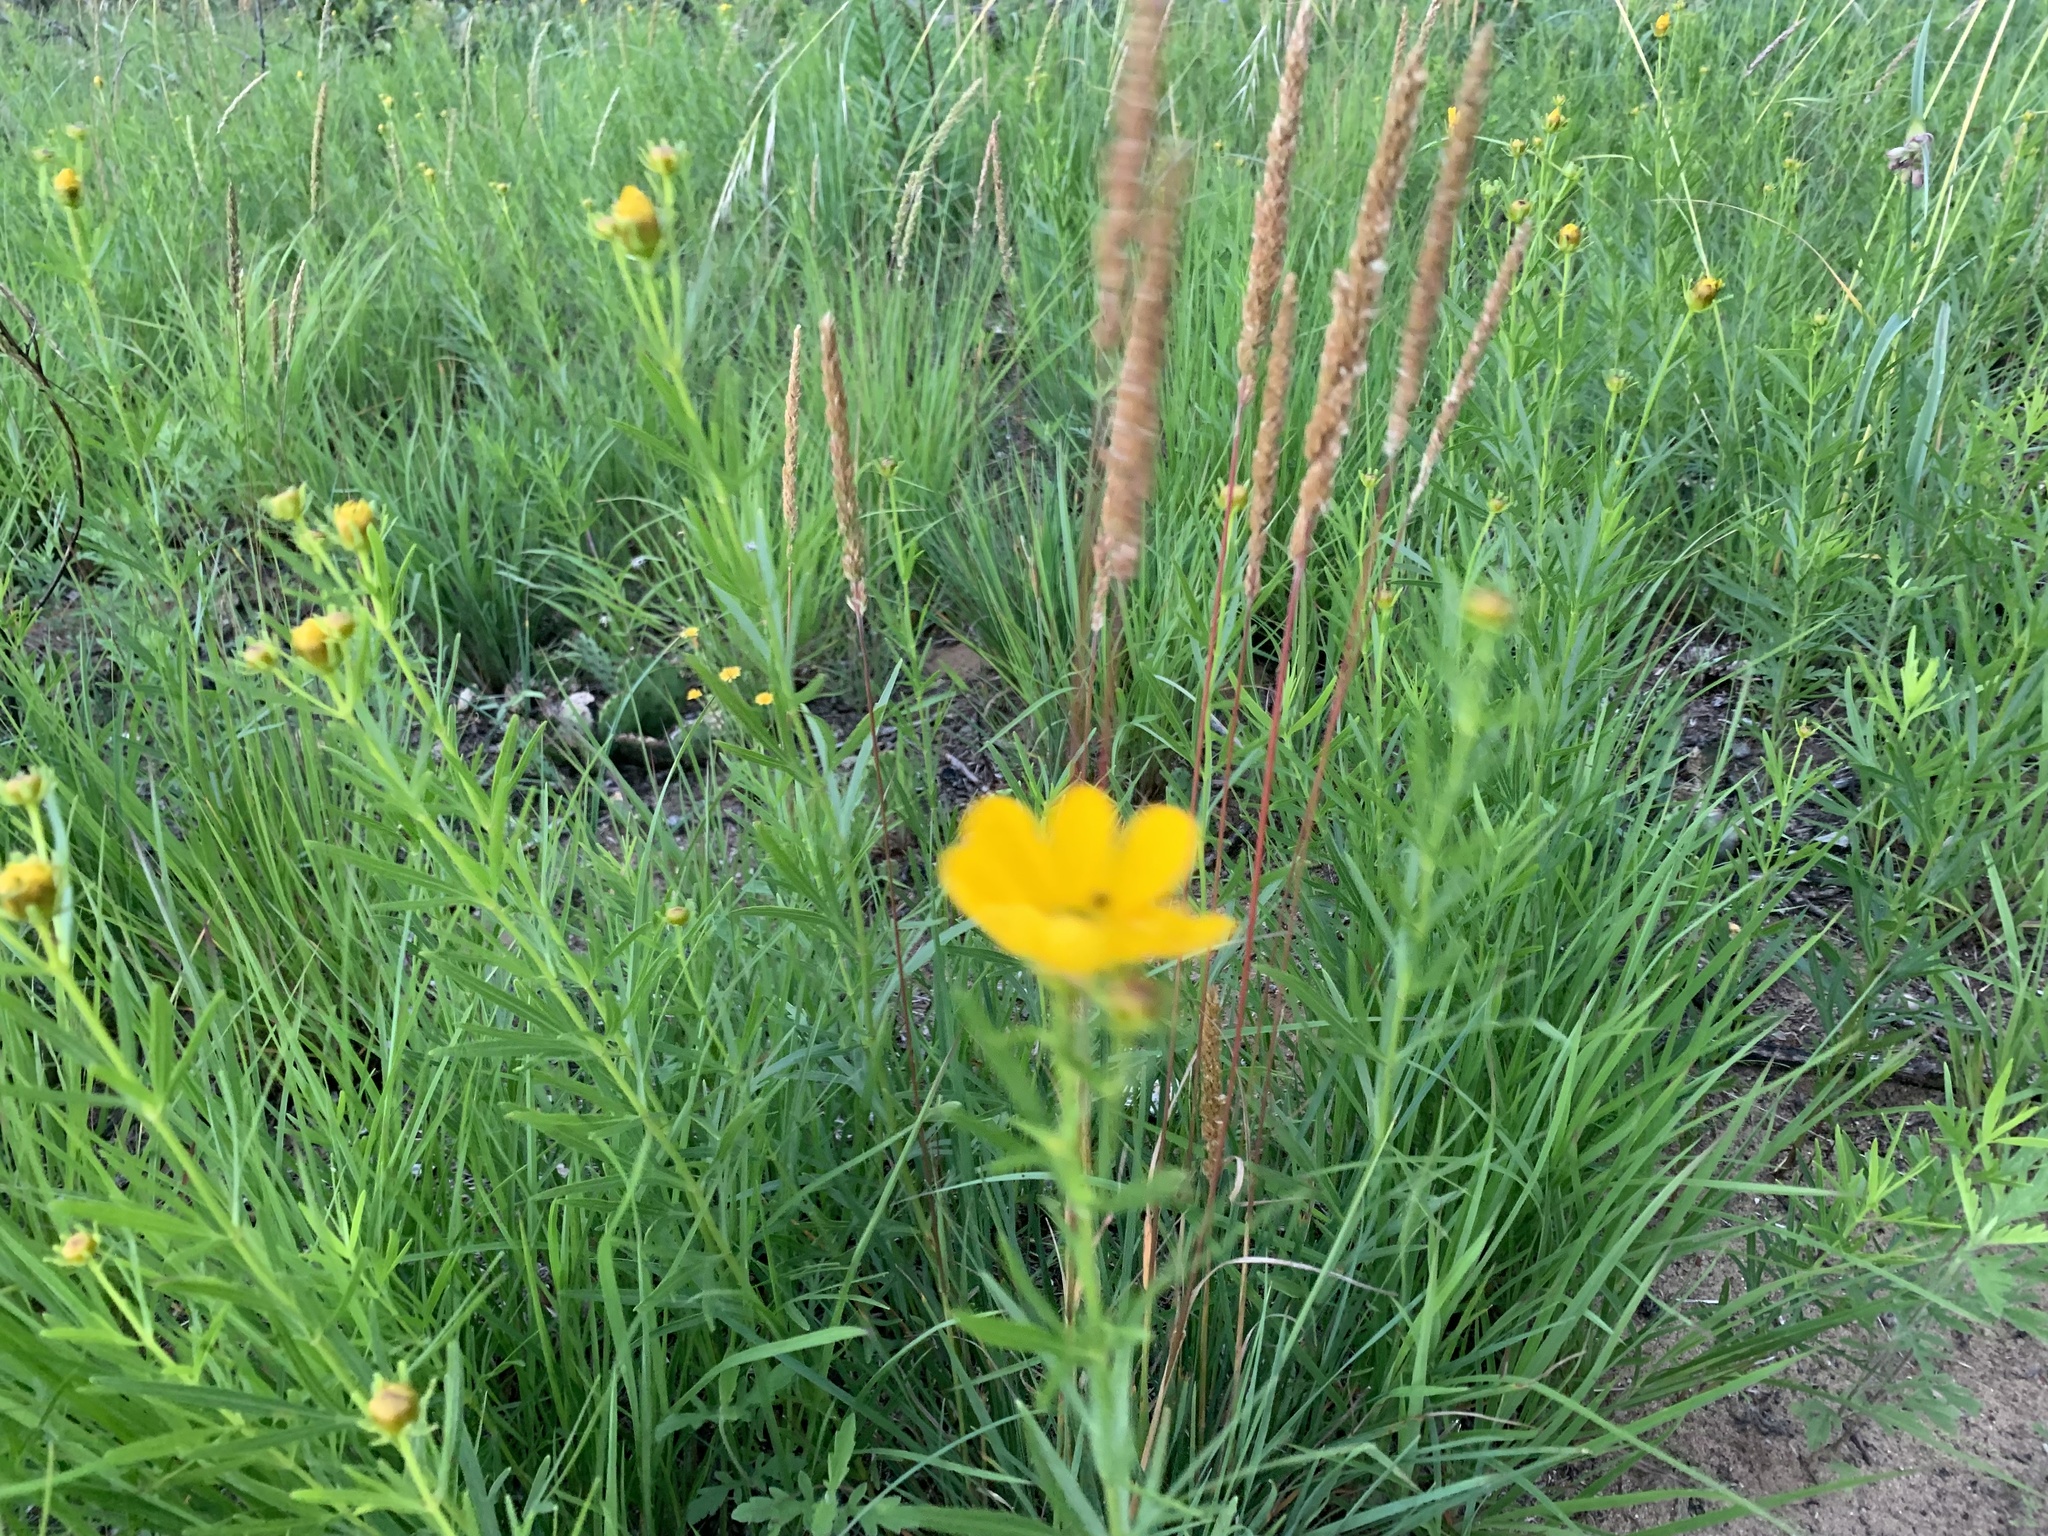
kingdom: Plantae
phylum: Tracheophyta
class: Magnoliopsida
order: Asterales
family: Asteraceae
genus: Coreopsis
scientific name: Coreopsis palmata
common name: Prairie coreopsis
